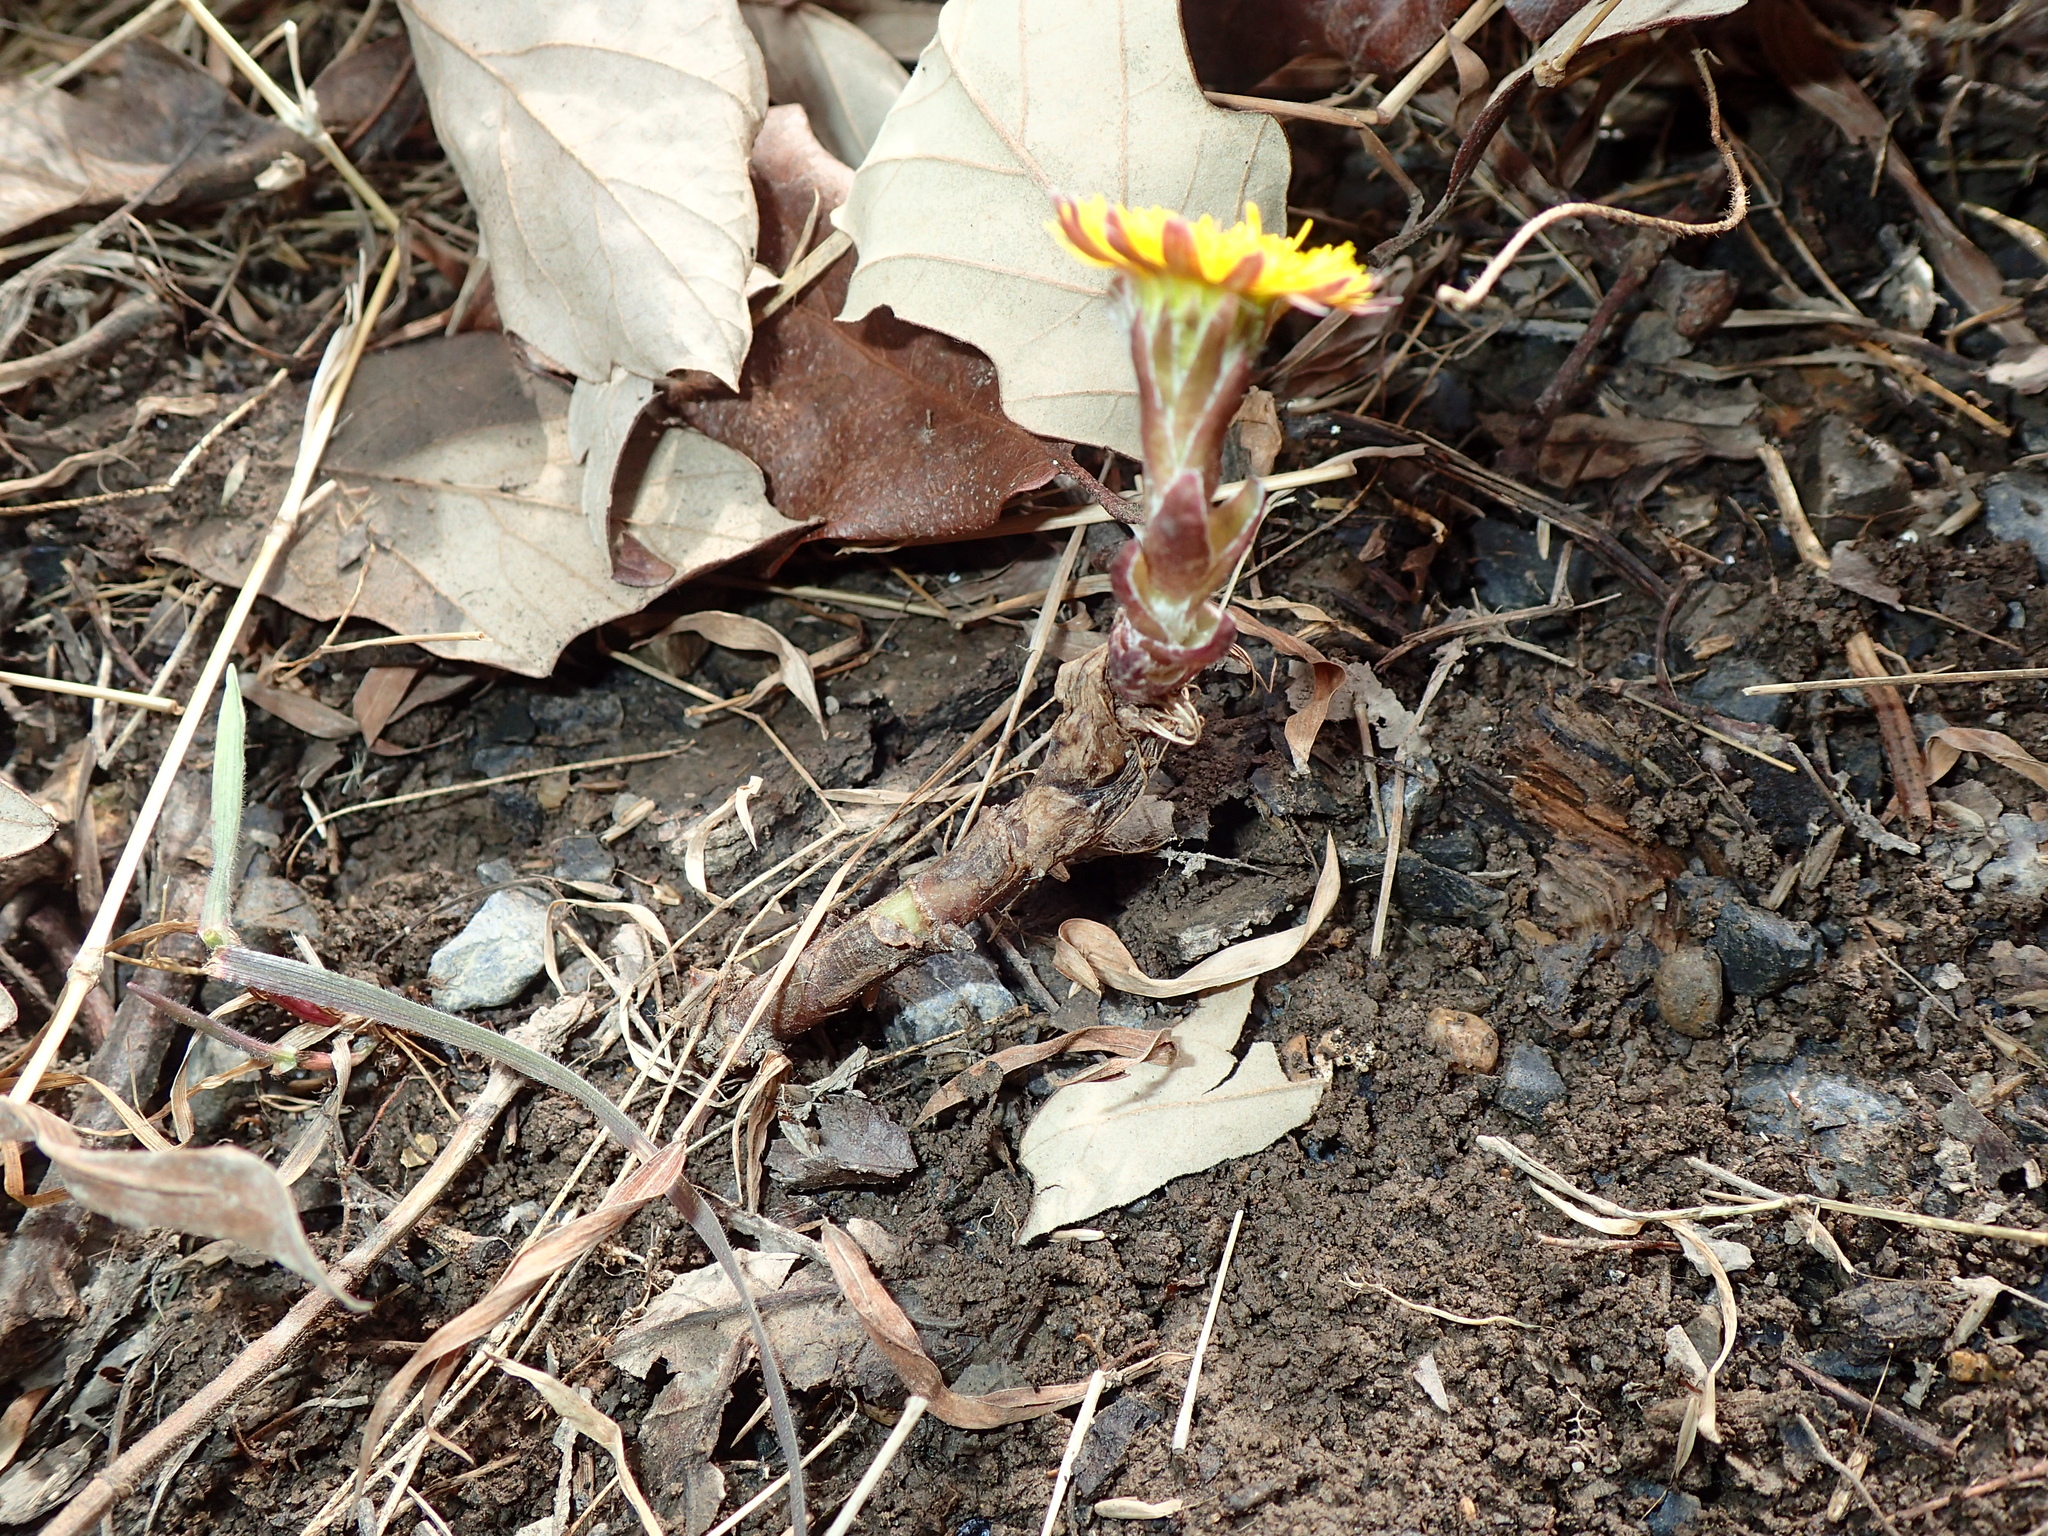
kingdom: Plantae
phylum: Tracheophyta
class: Magnoliopsida
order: Asterales
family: Asteraceae
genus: Tussilago
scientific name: Tussilago farfara
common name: Coltsfoot
